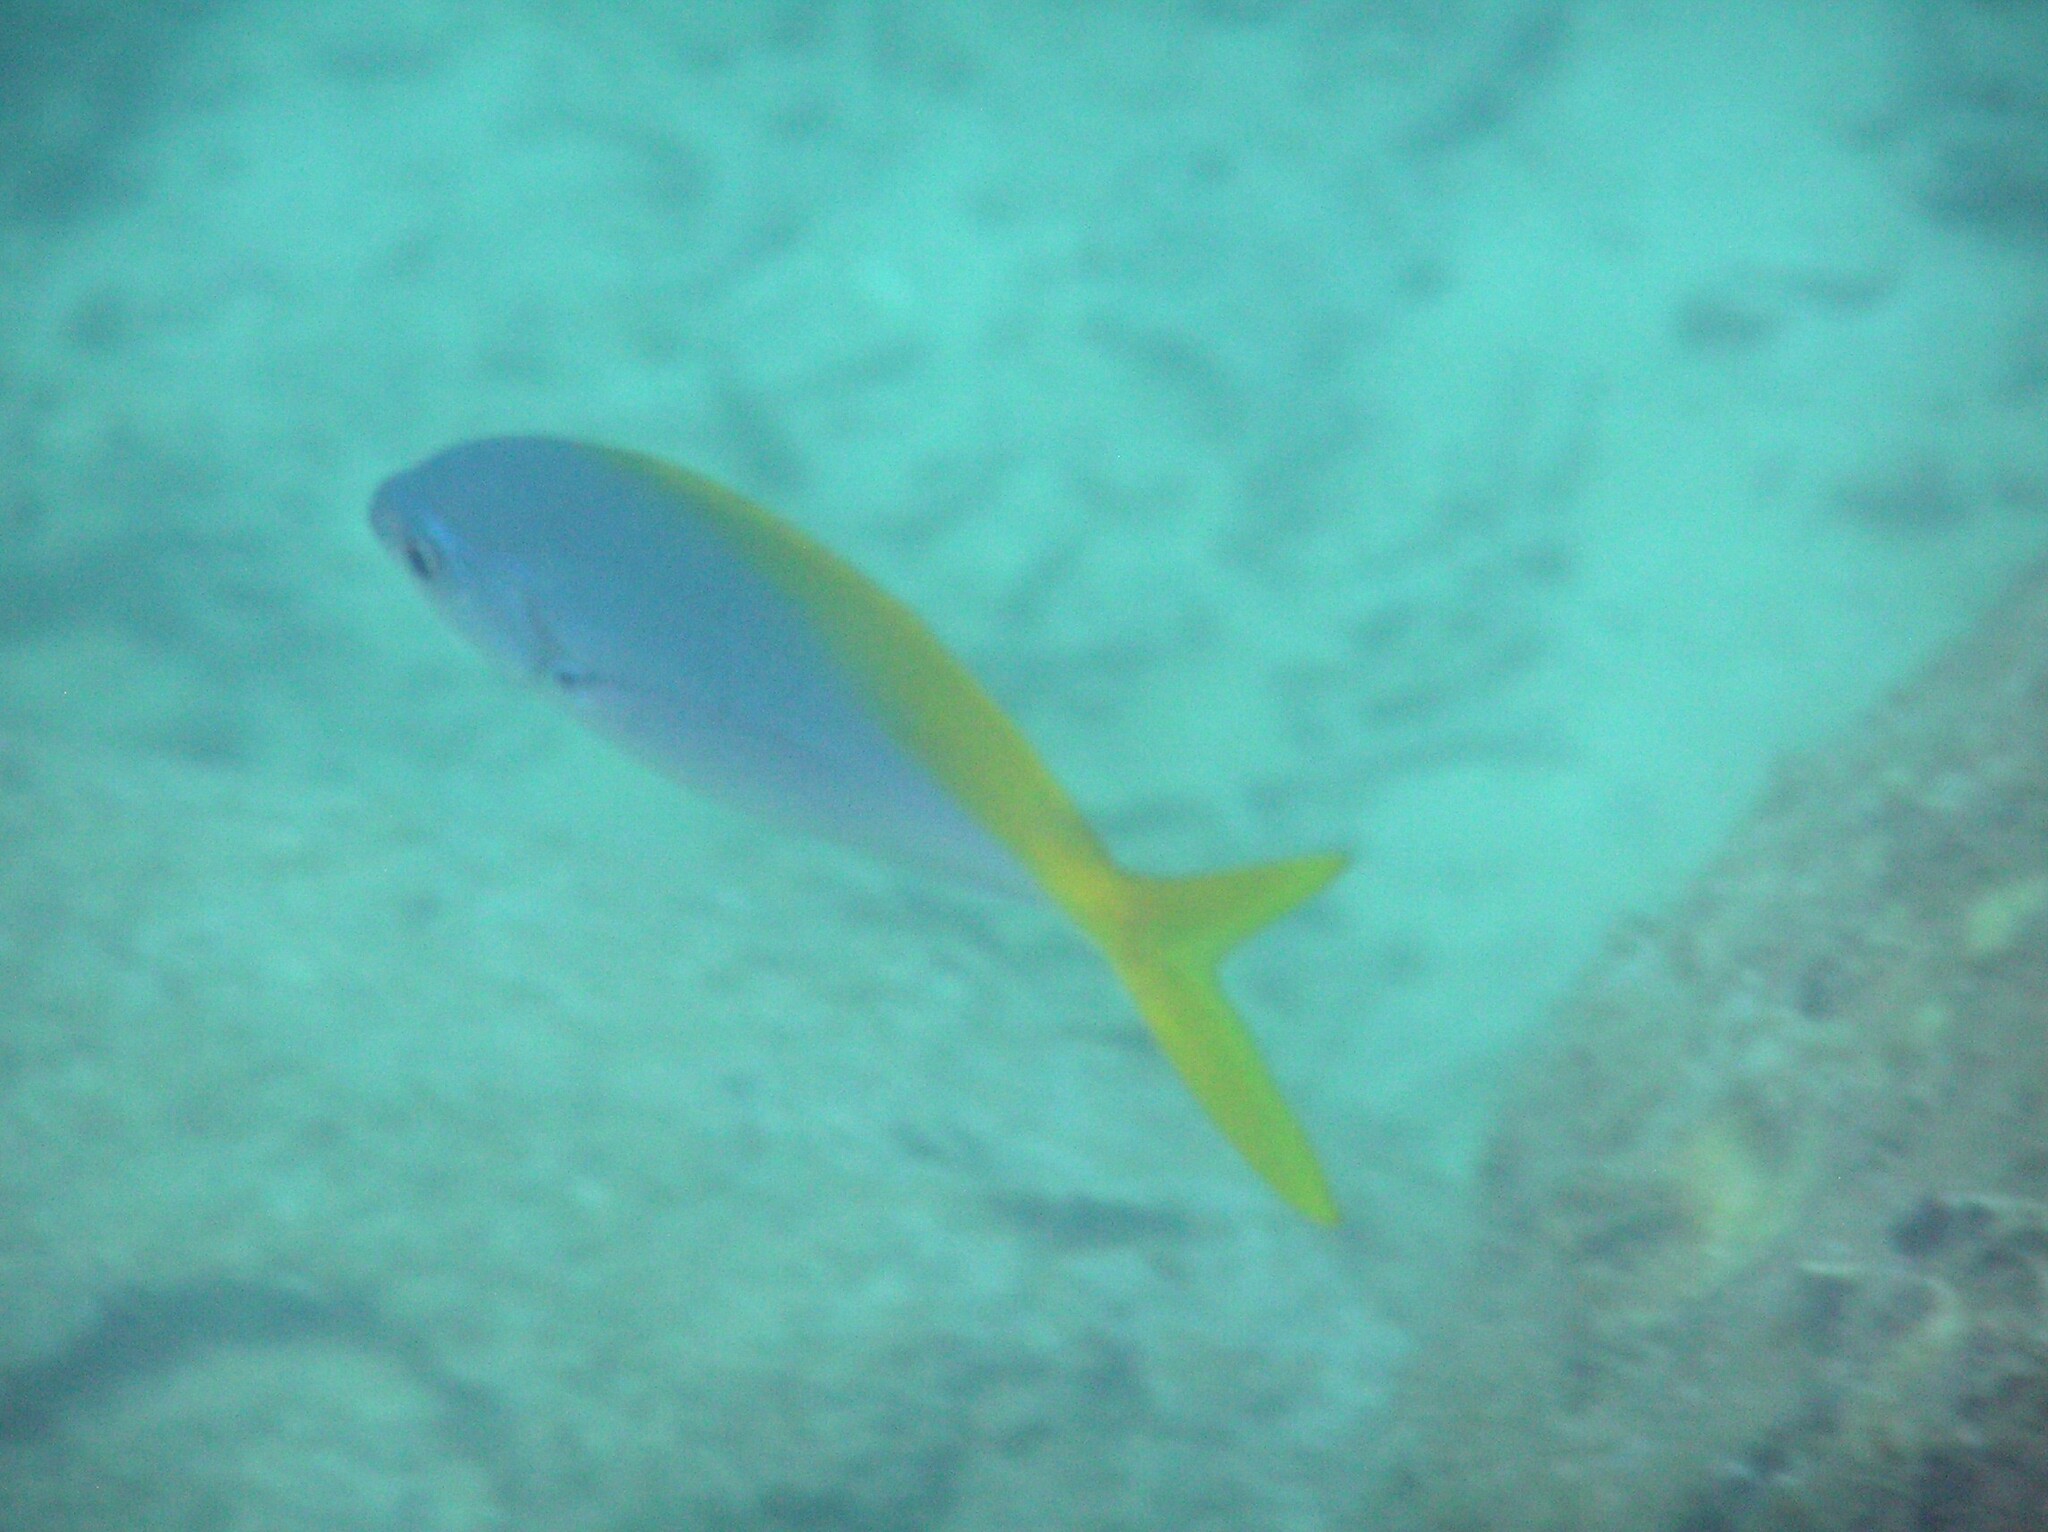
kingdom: Animalia
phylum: Chordata
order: Perciformes
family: Caesionidae
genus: Caesio
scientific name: Caesio teres
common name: Yellow and blueback fusilier
